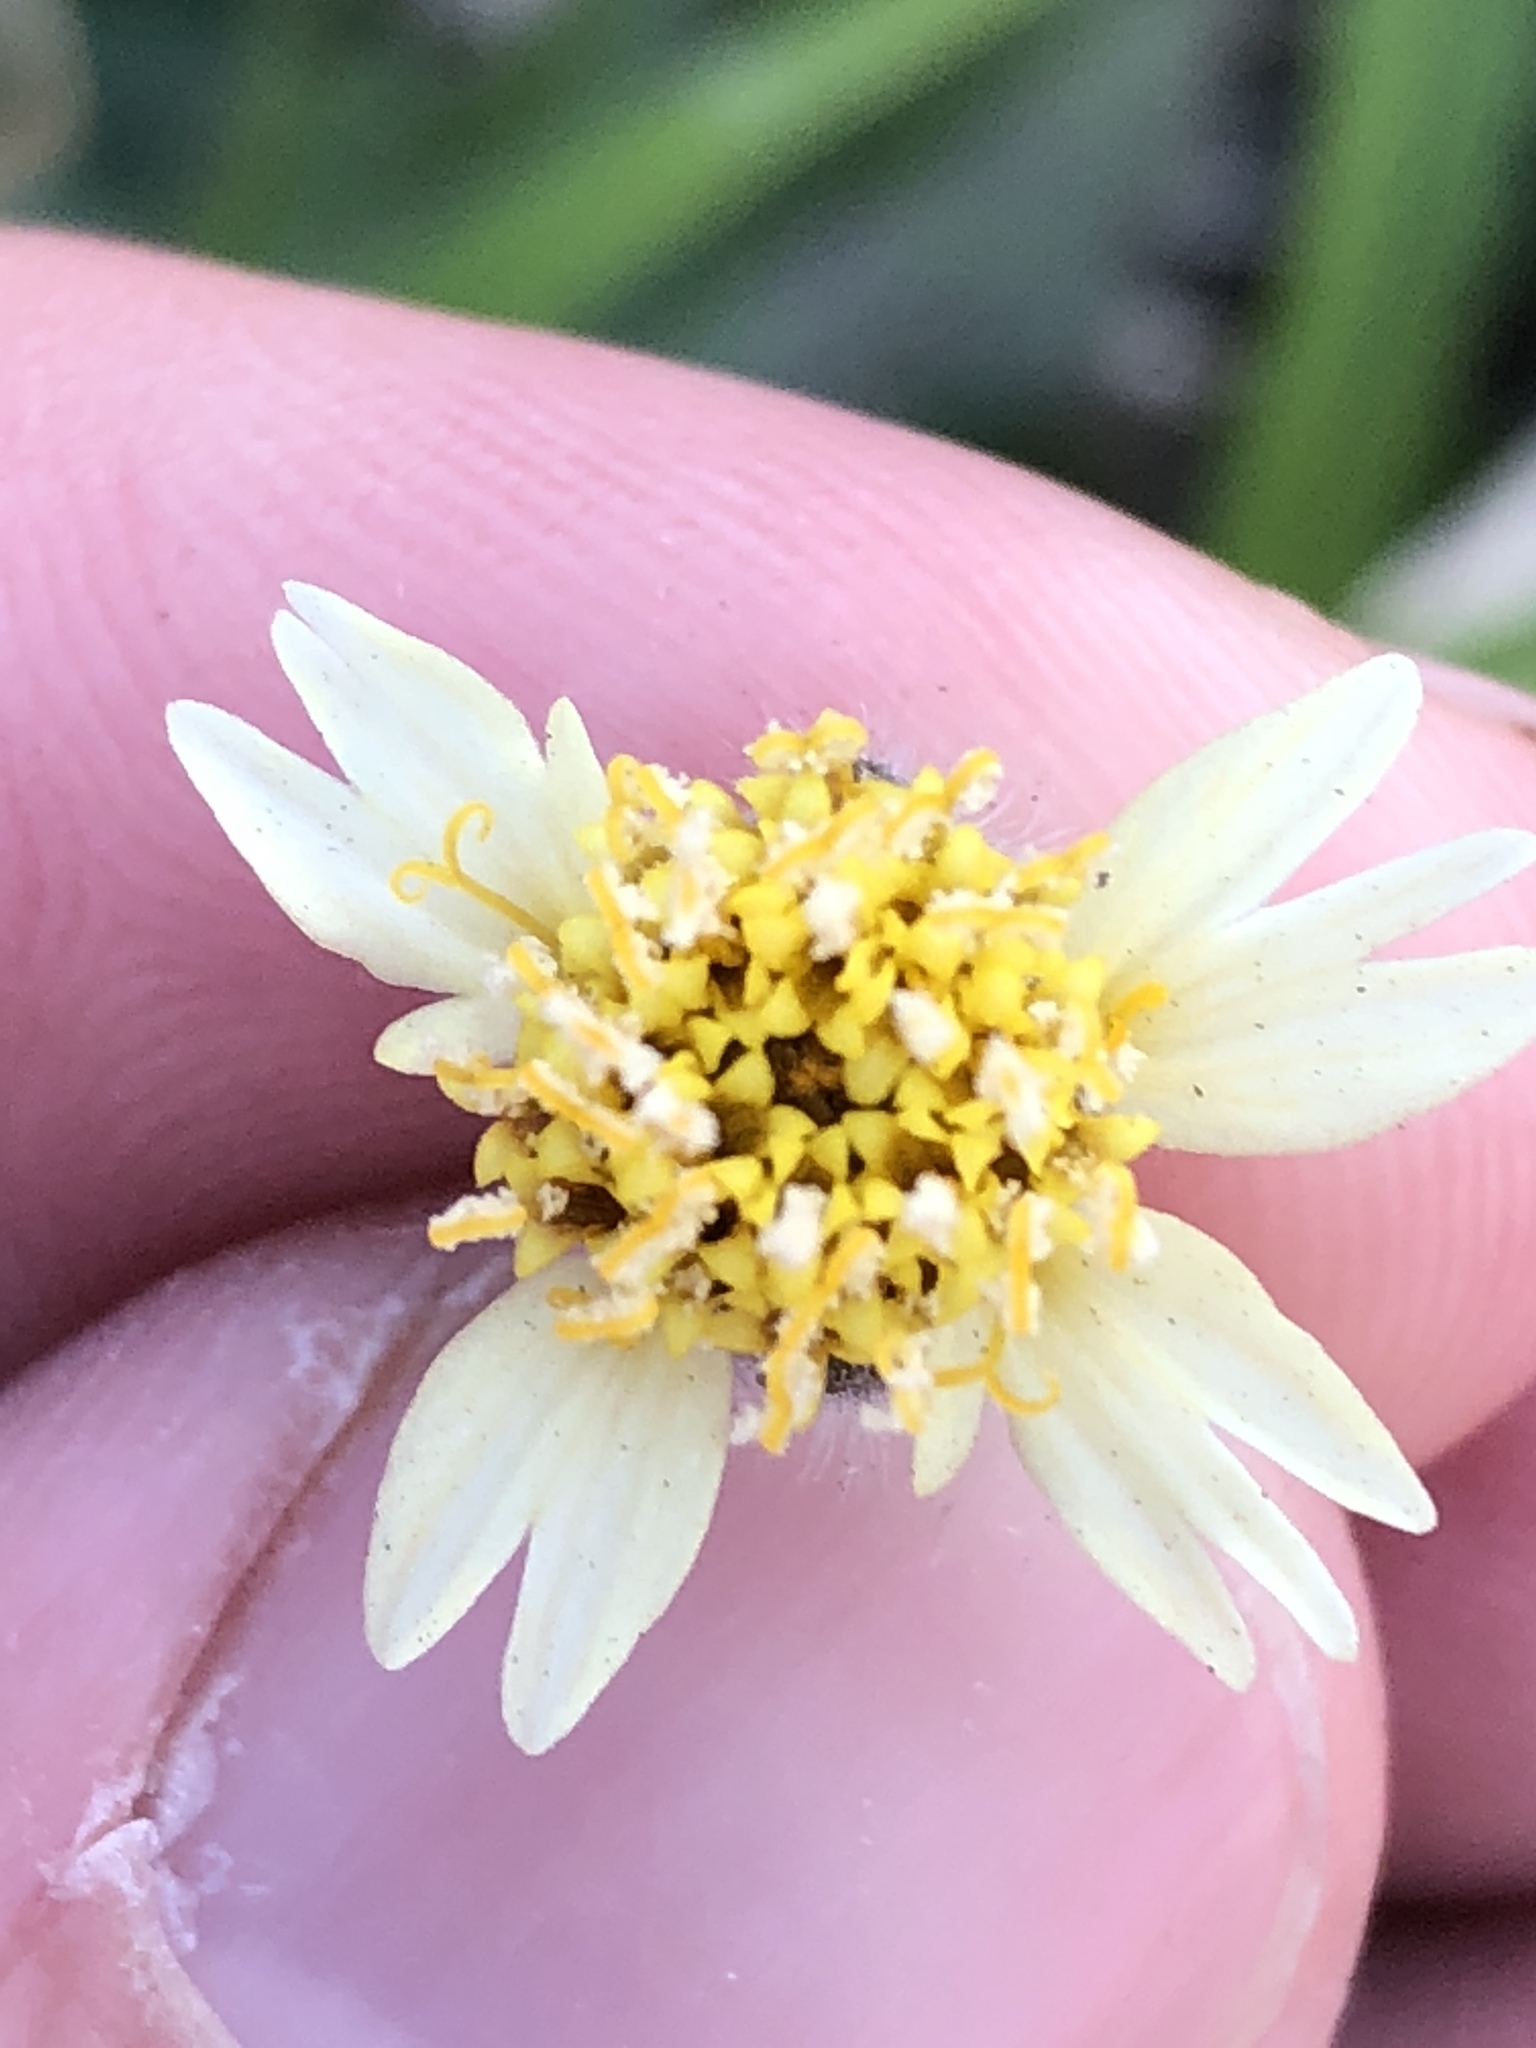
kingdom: Plantae
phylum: Tracheophyta
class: Magnoliopsida
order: Asterales
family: Asteraceae
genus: Tridax
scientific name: Tridax procumbens
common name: Coatbuttons
